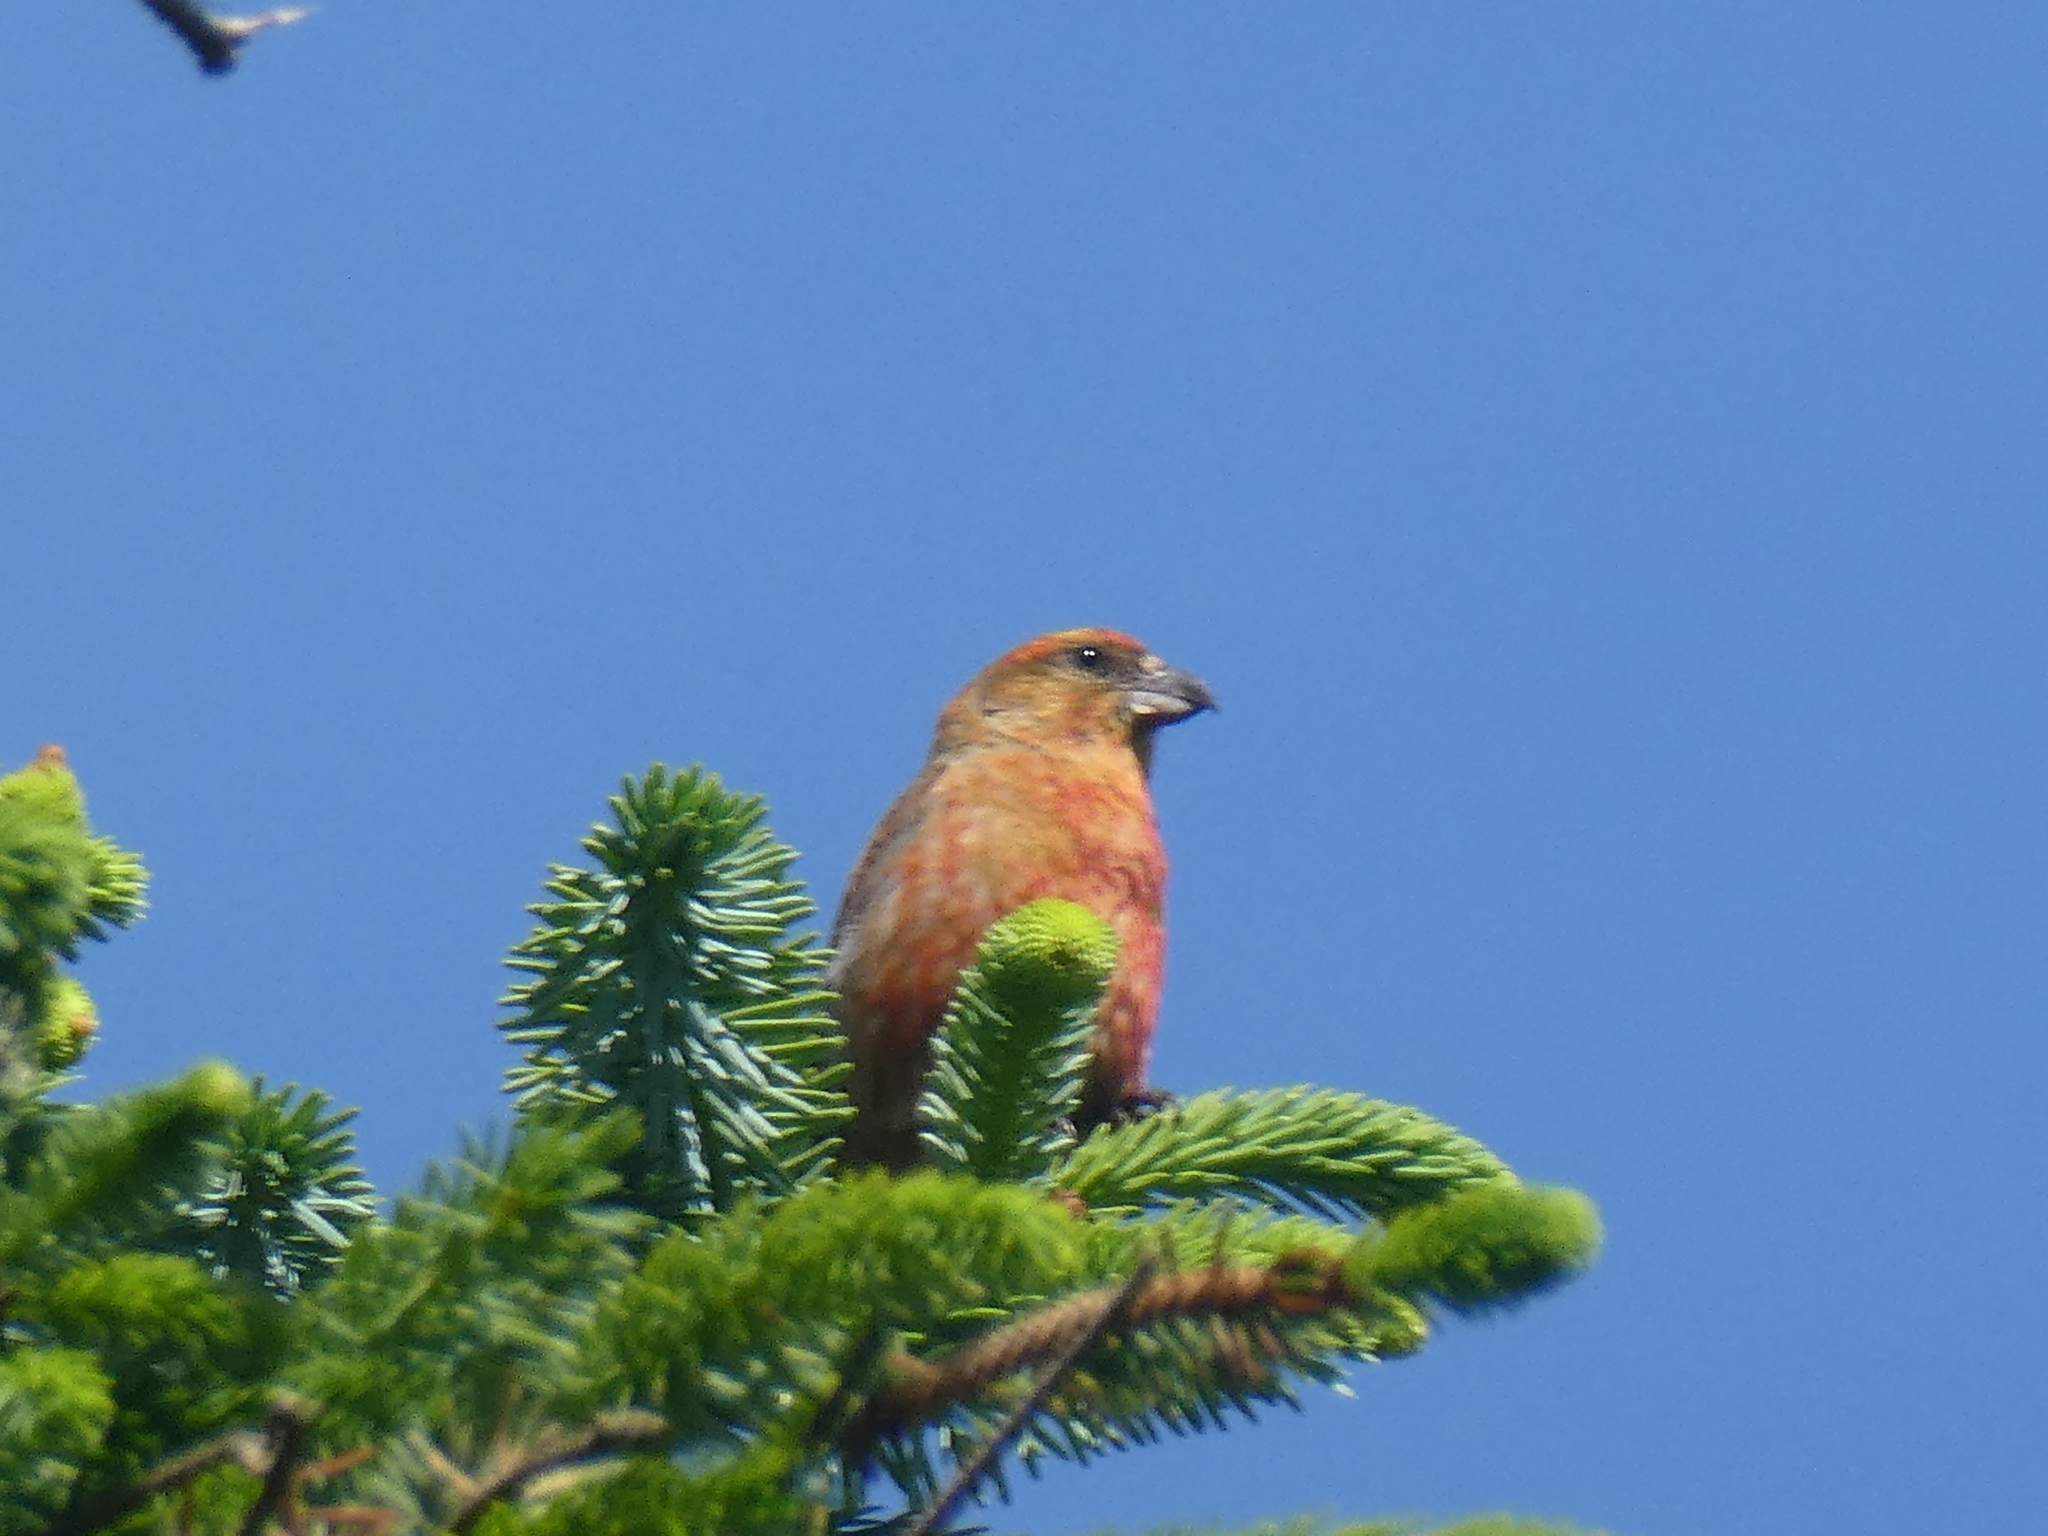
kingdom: Animalia
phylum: Chordata
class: Aves
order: Passeriformes
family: Fringillidae
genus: Loxia
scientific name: Loxia curvirostra
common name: Red crossbill
